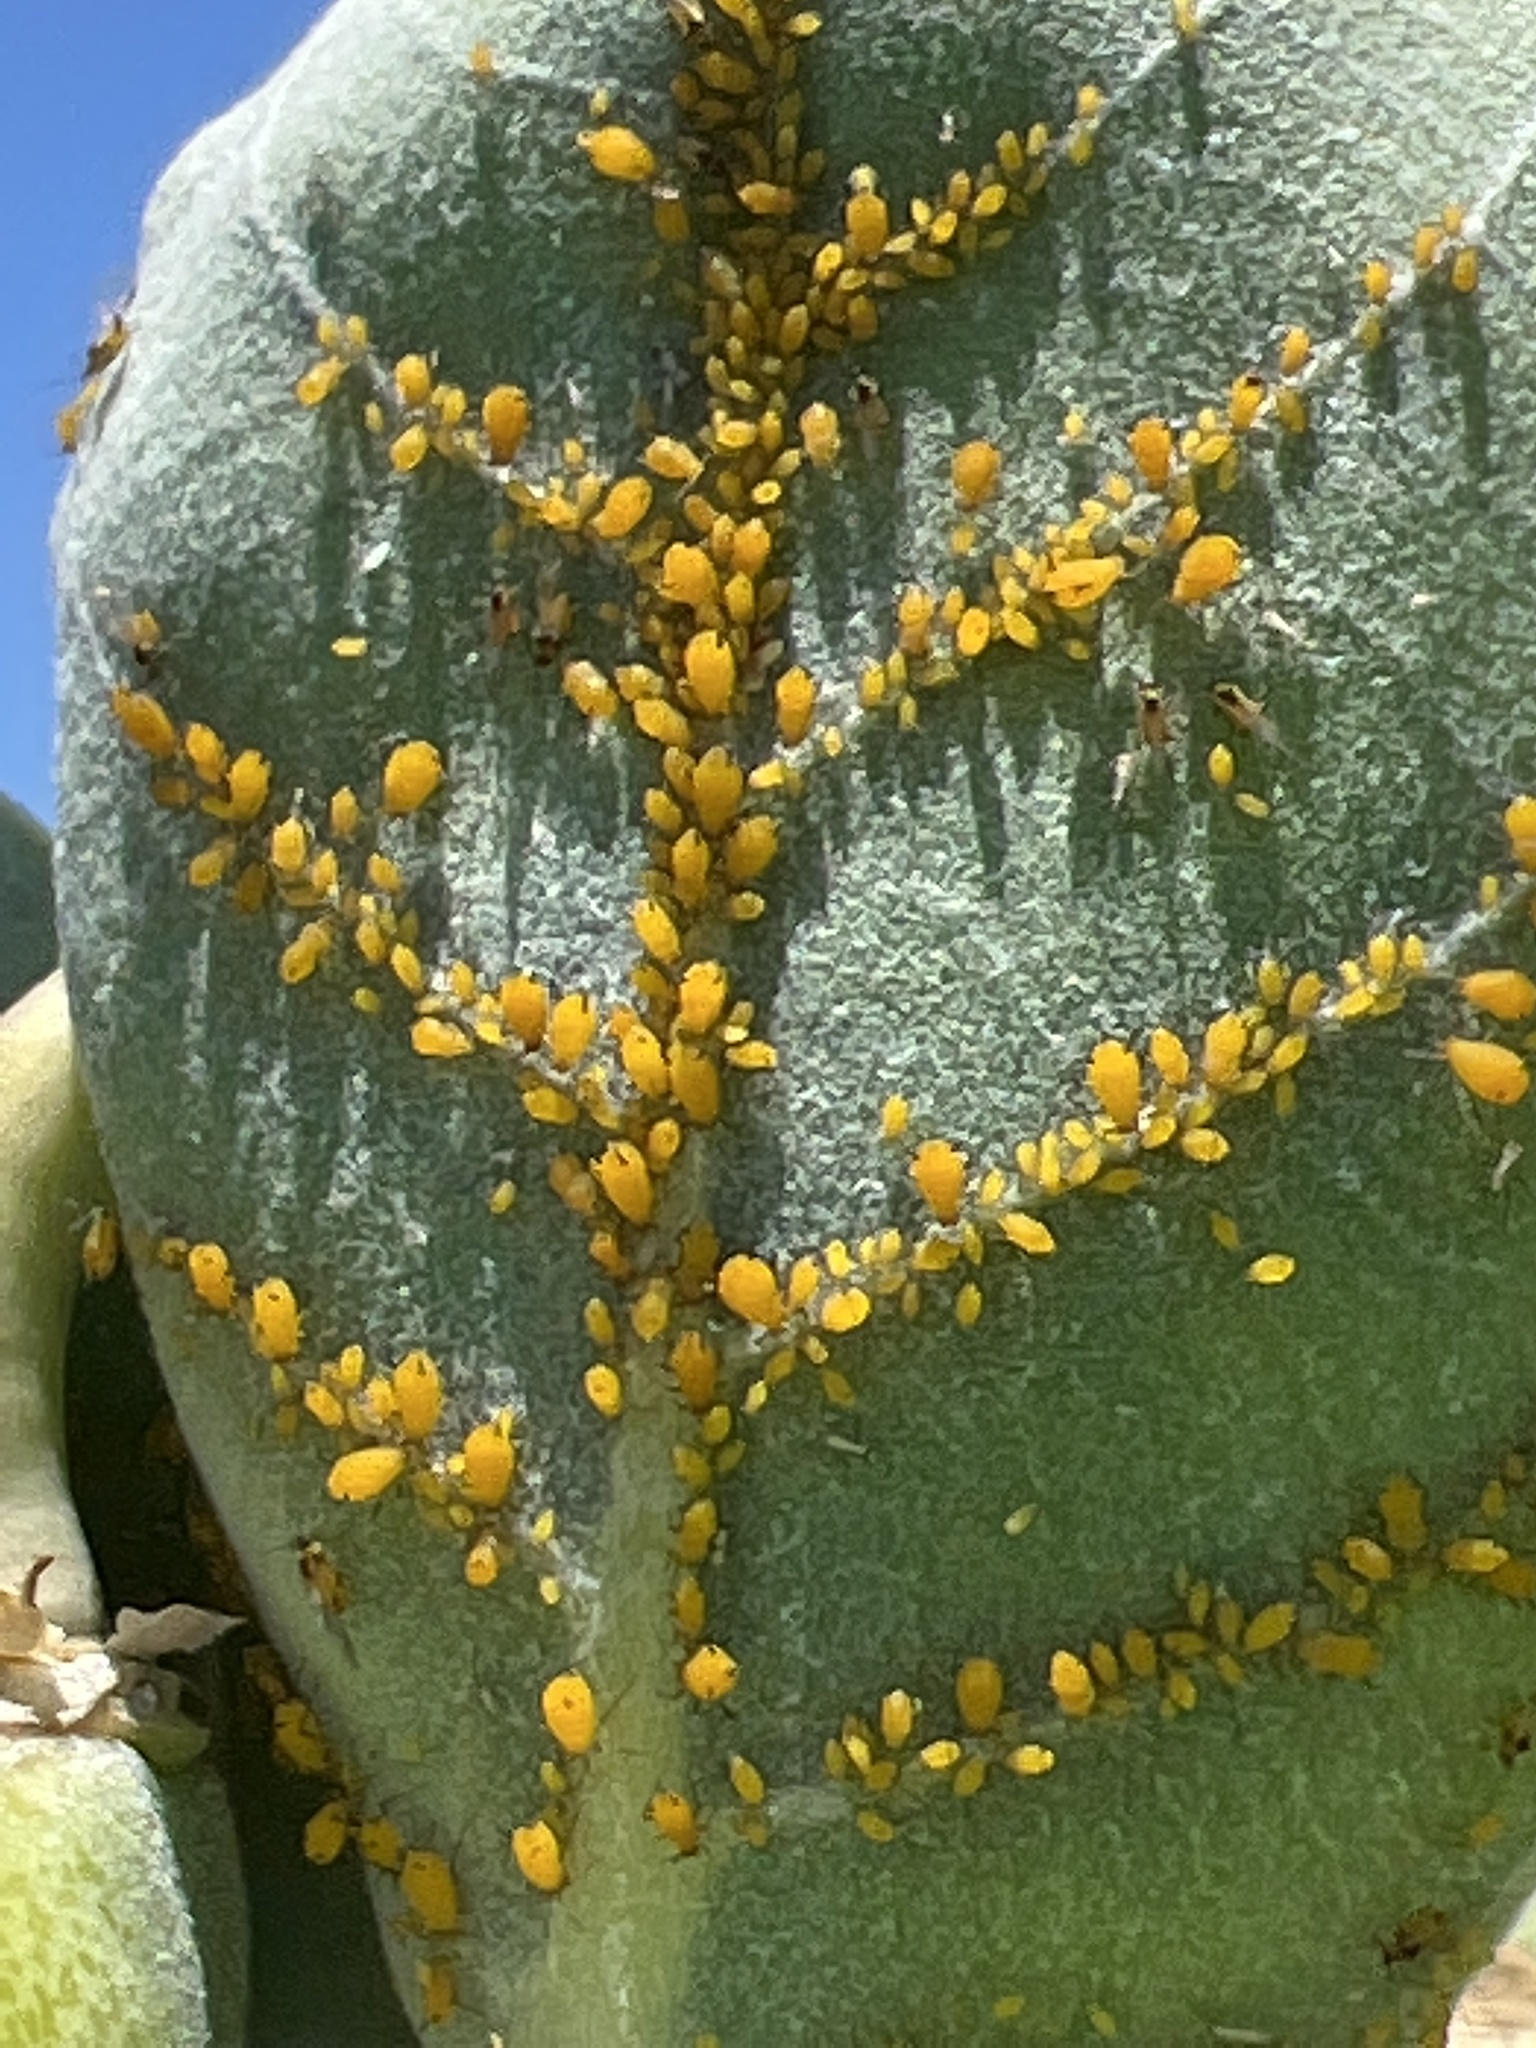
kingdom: Animalia
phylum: Arthropoda
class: Insecta
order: Hemiptera
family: Aphididae
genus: Aphis
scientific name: Aphis nerii
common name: Oleander aphid
